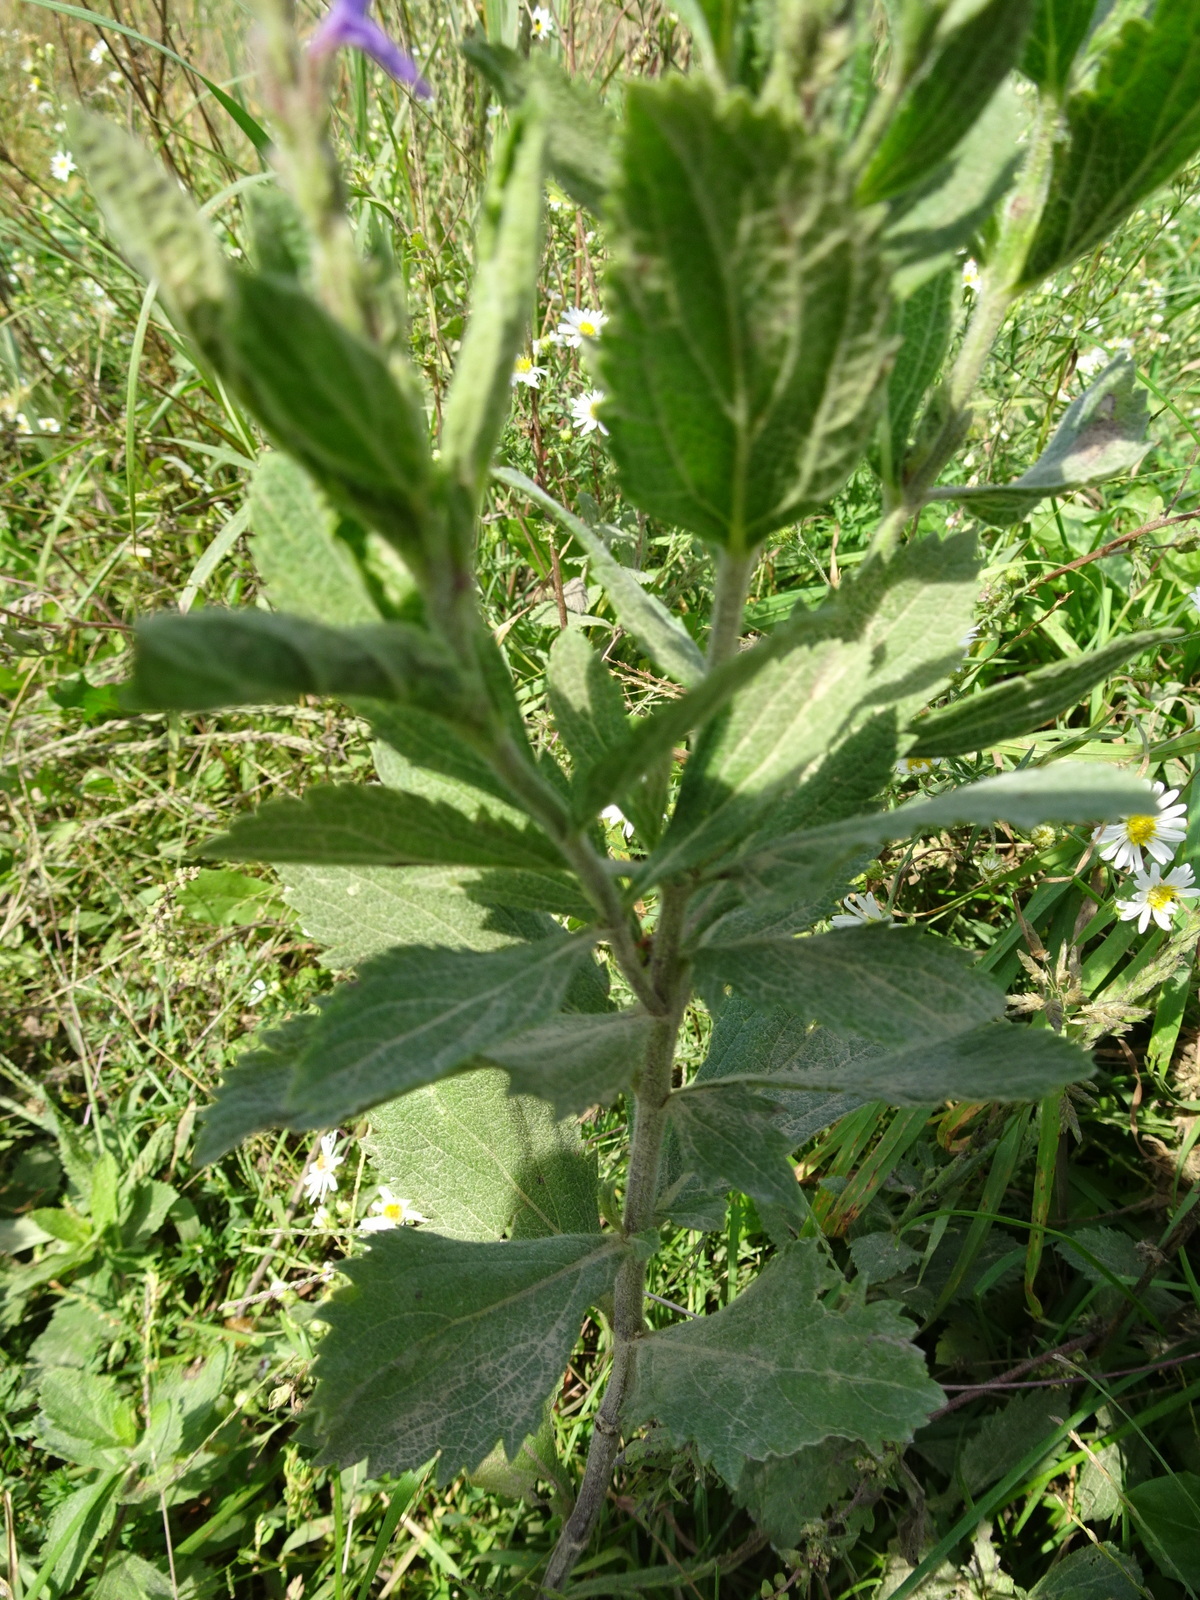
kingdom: Plantae
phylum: Tracheophyta
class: Magnoliopsida
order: Lamiales
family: Verbenaceae
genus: Verbena
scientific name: Verbena stricta
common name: Hoary vervain
